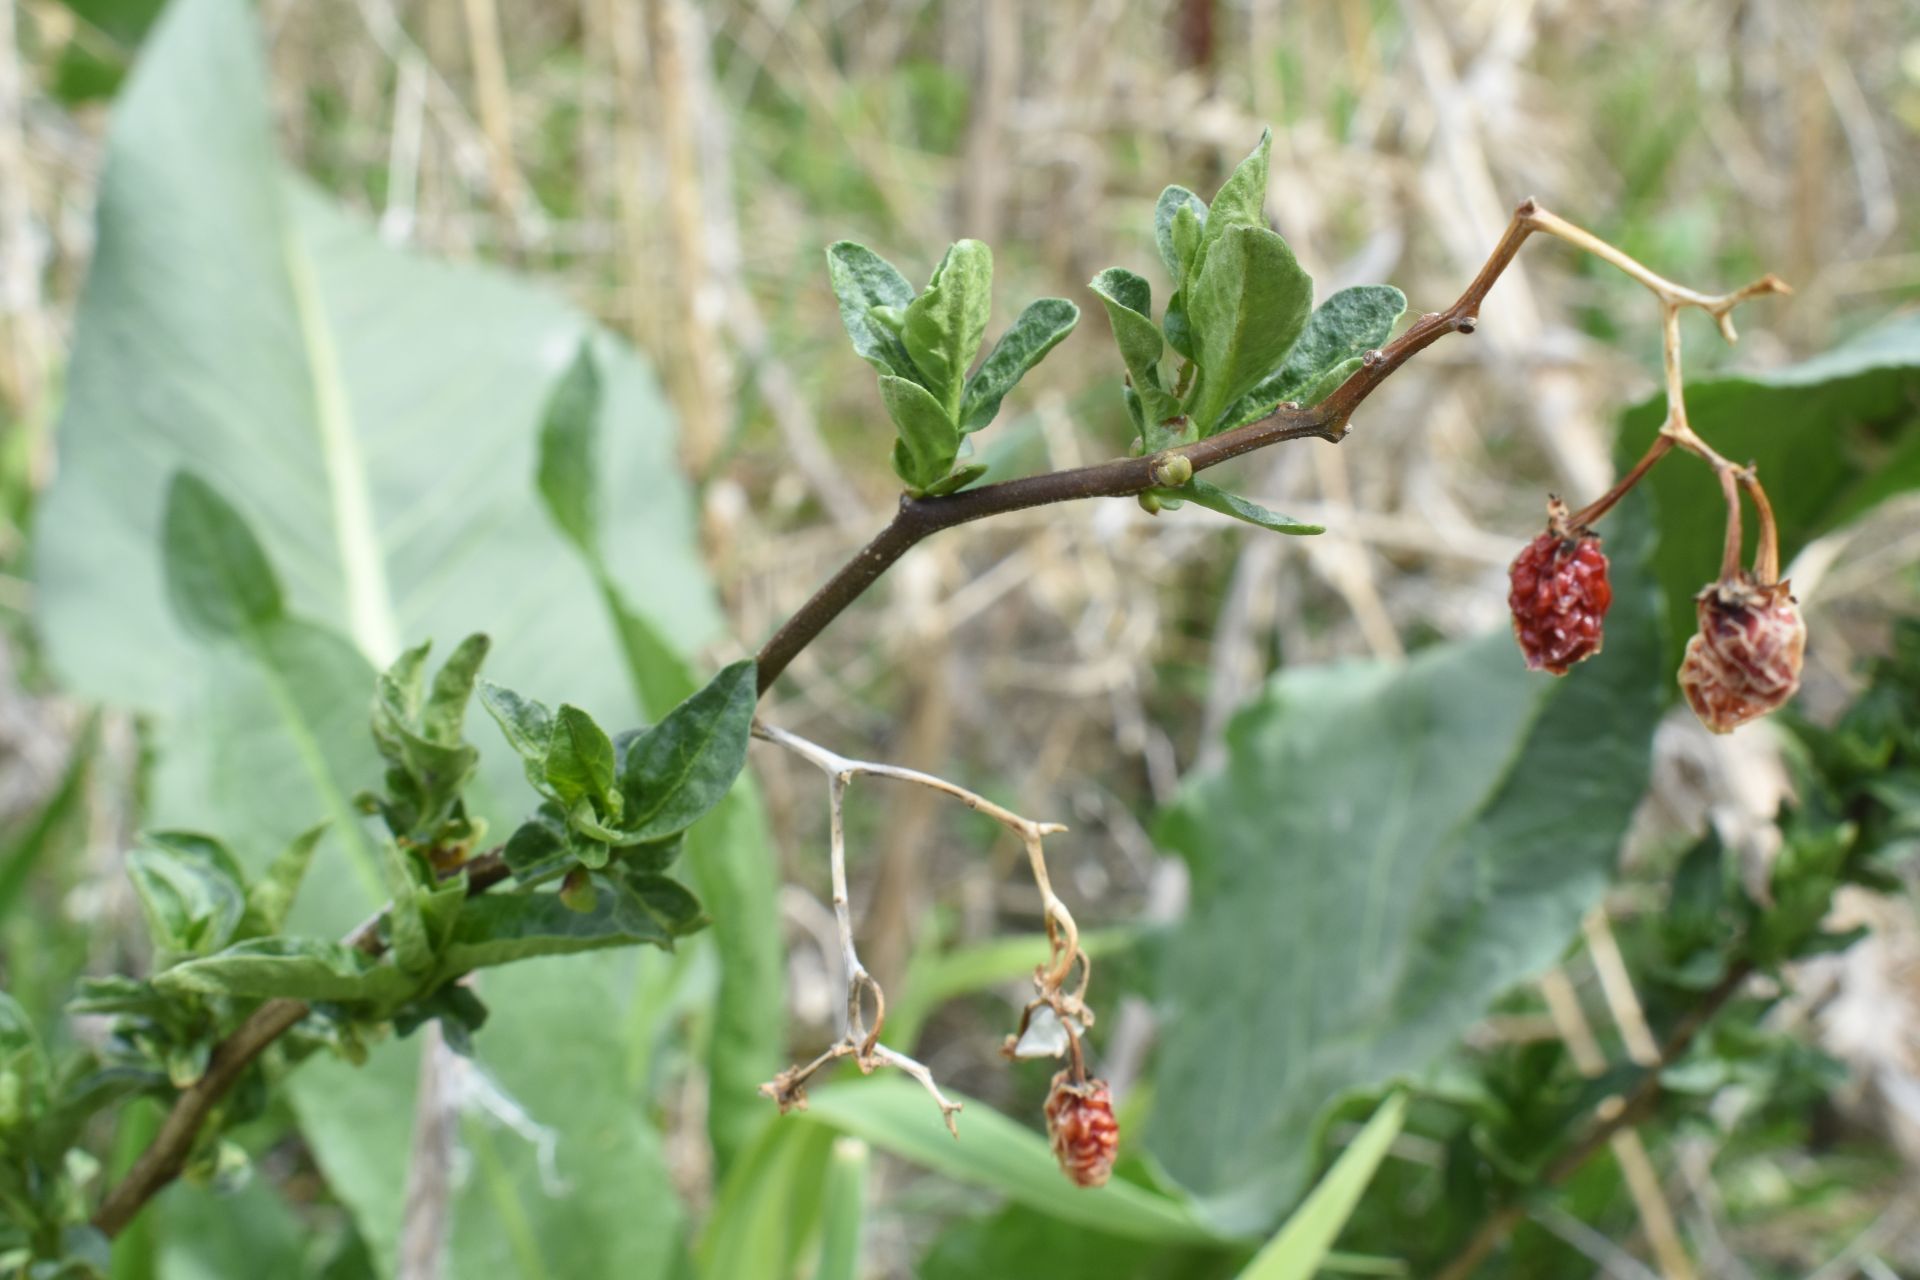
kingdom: Plantae
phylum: Tracheophyta
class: Magnoliopsida
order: Solanales
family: Solanaceae
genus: Solanum
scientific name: Solanum dulcamara
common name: Climbing nightshade
